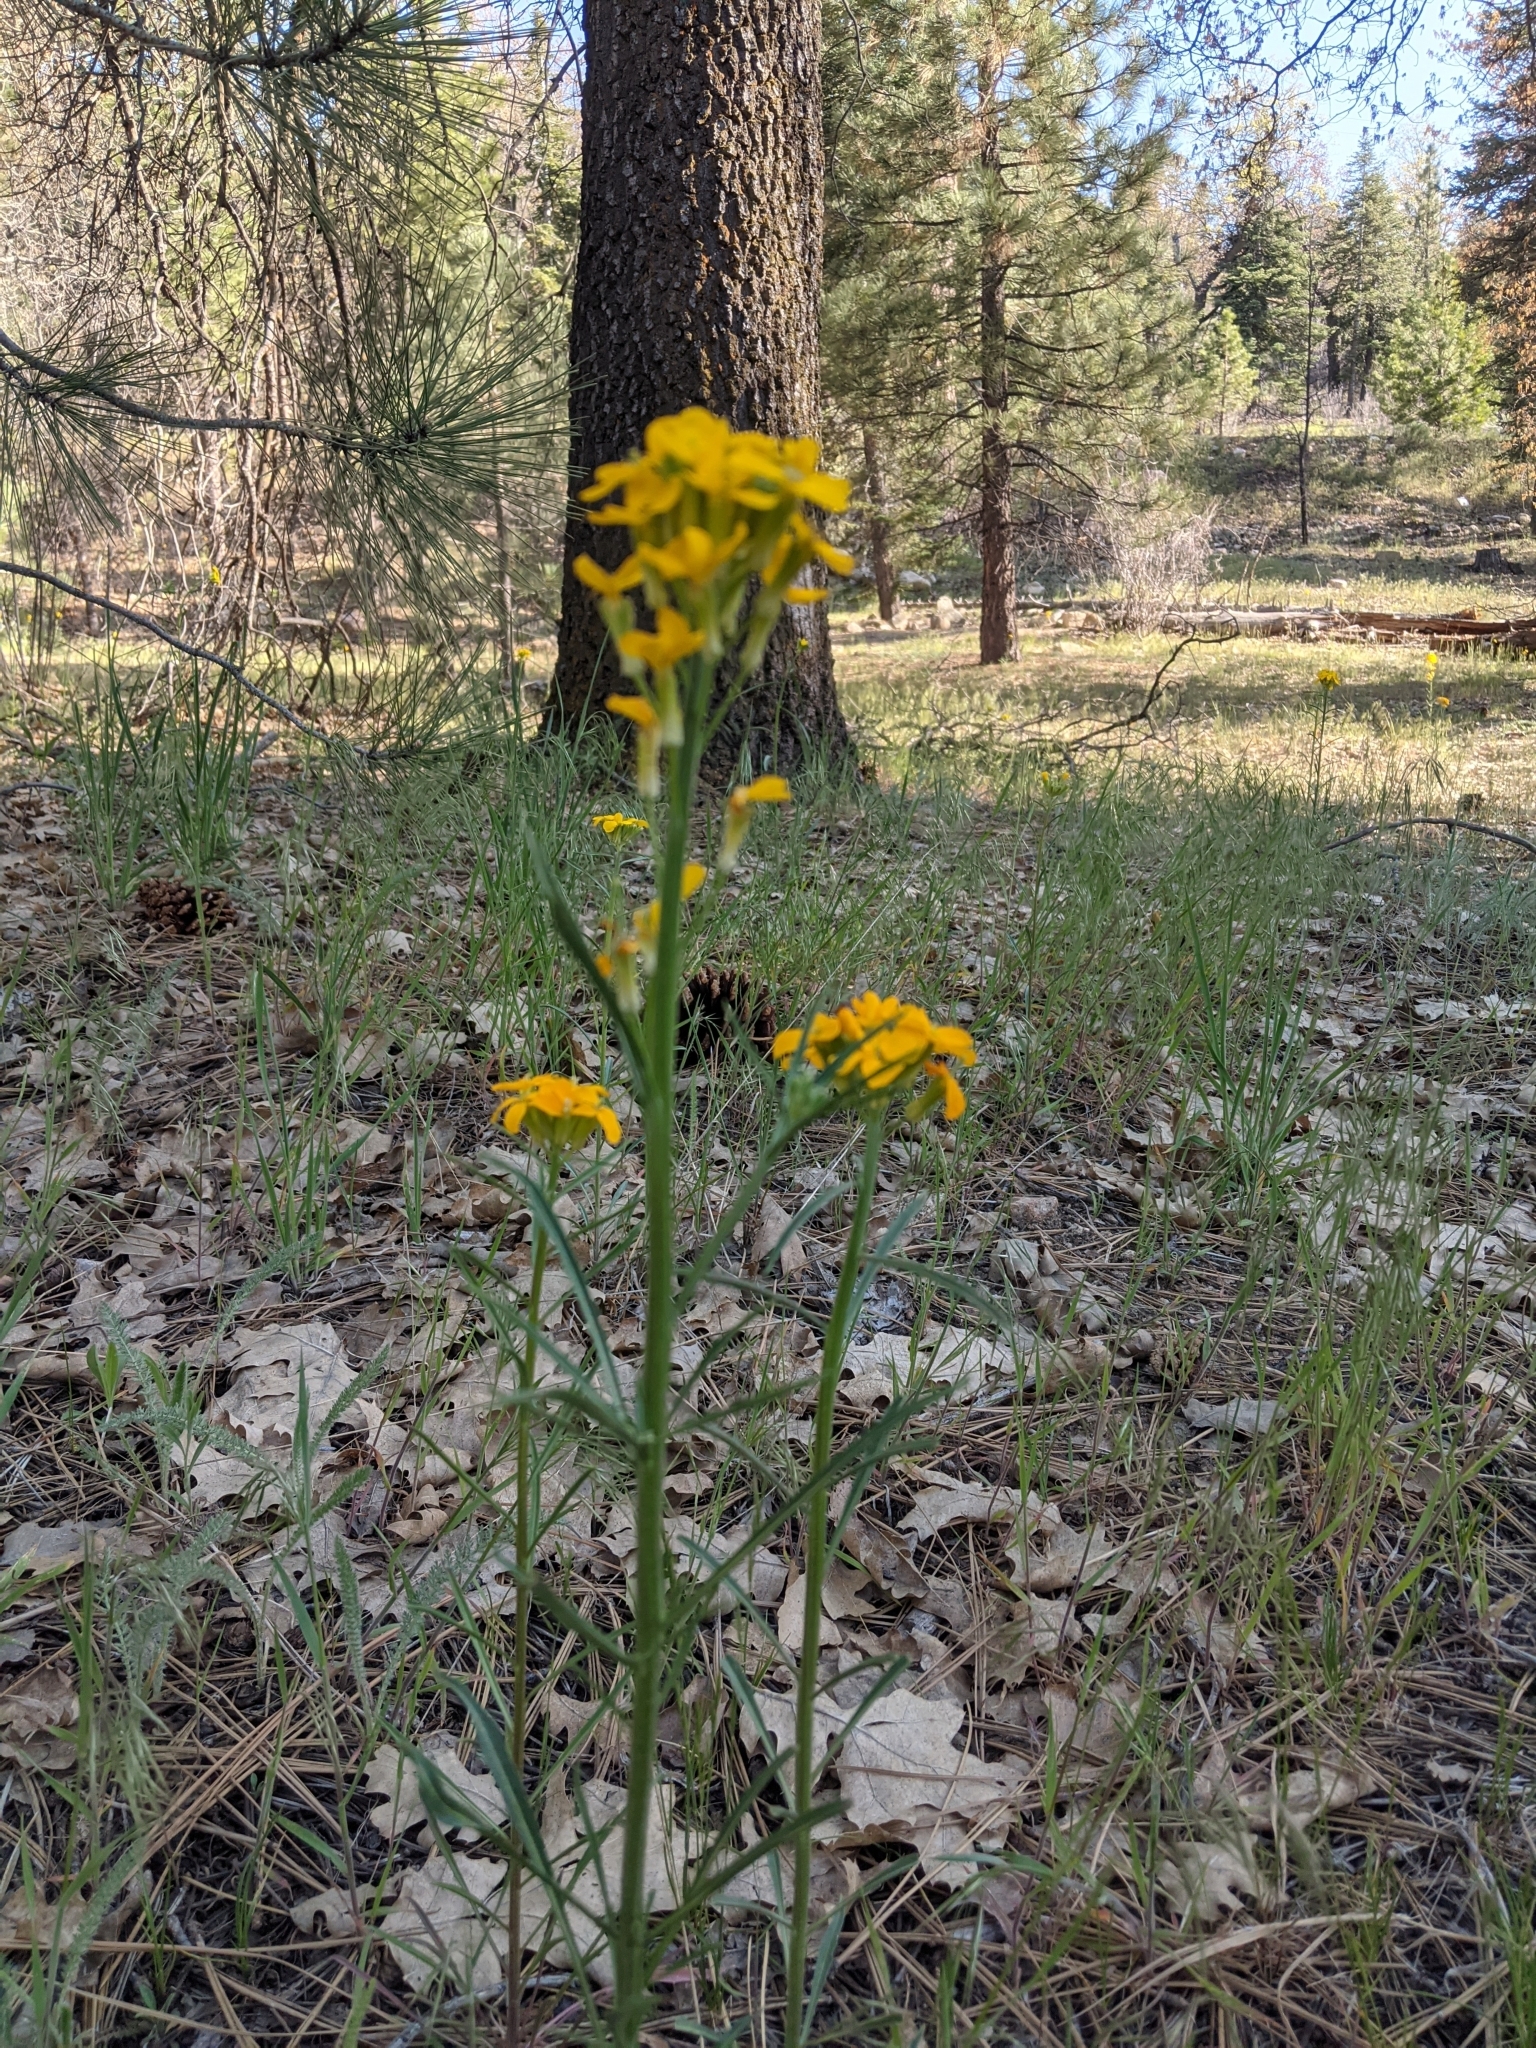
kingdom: Plantae
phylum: Tracheophyta
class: Magnoliopsida
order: Brassicales
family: Brassicaceae
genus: Erysimum
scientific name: Erysimum capitatum
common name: Western wallflower
